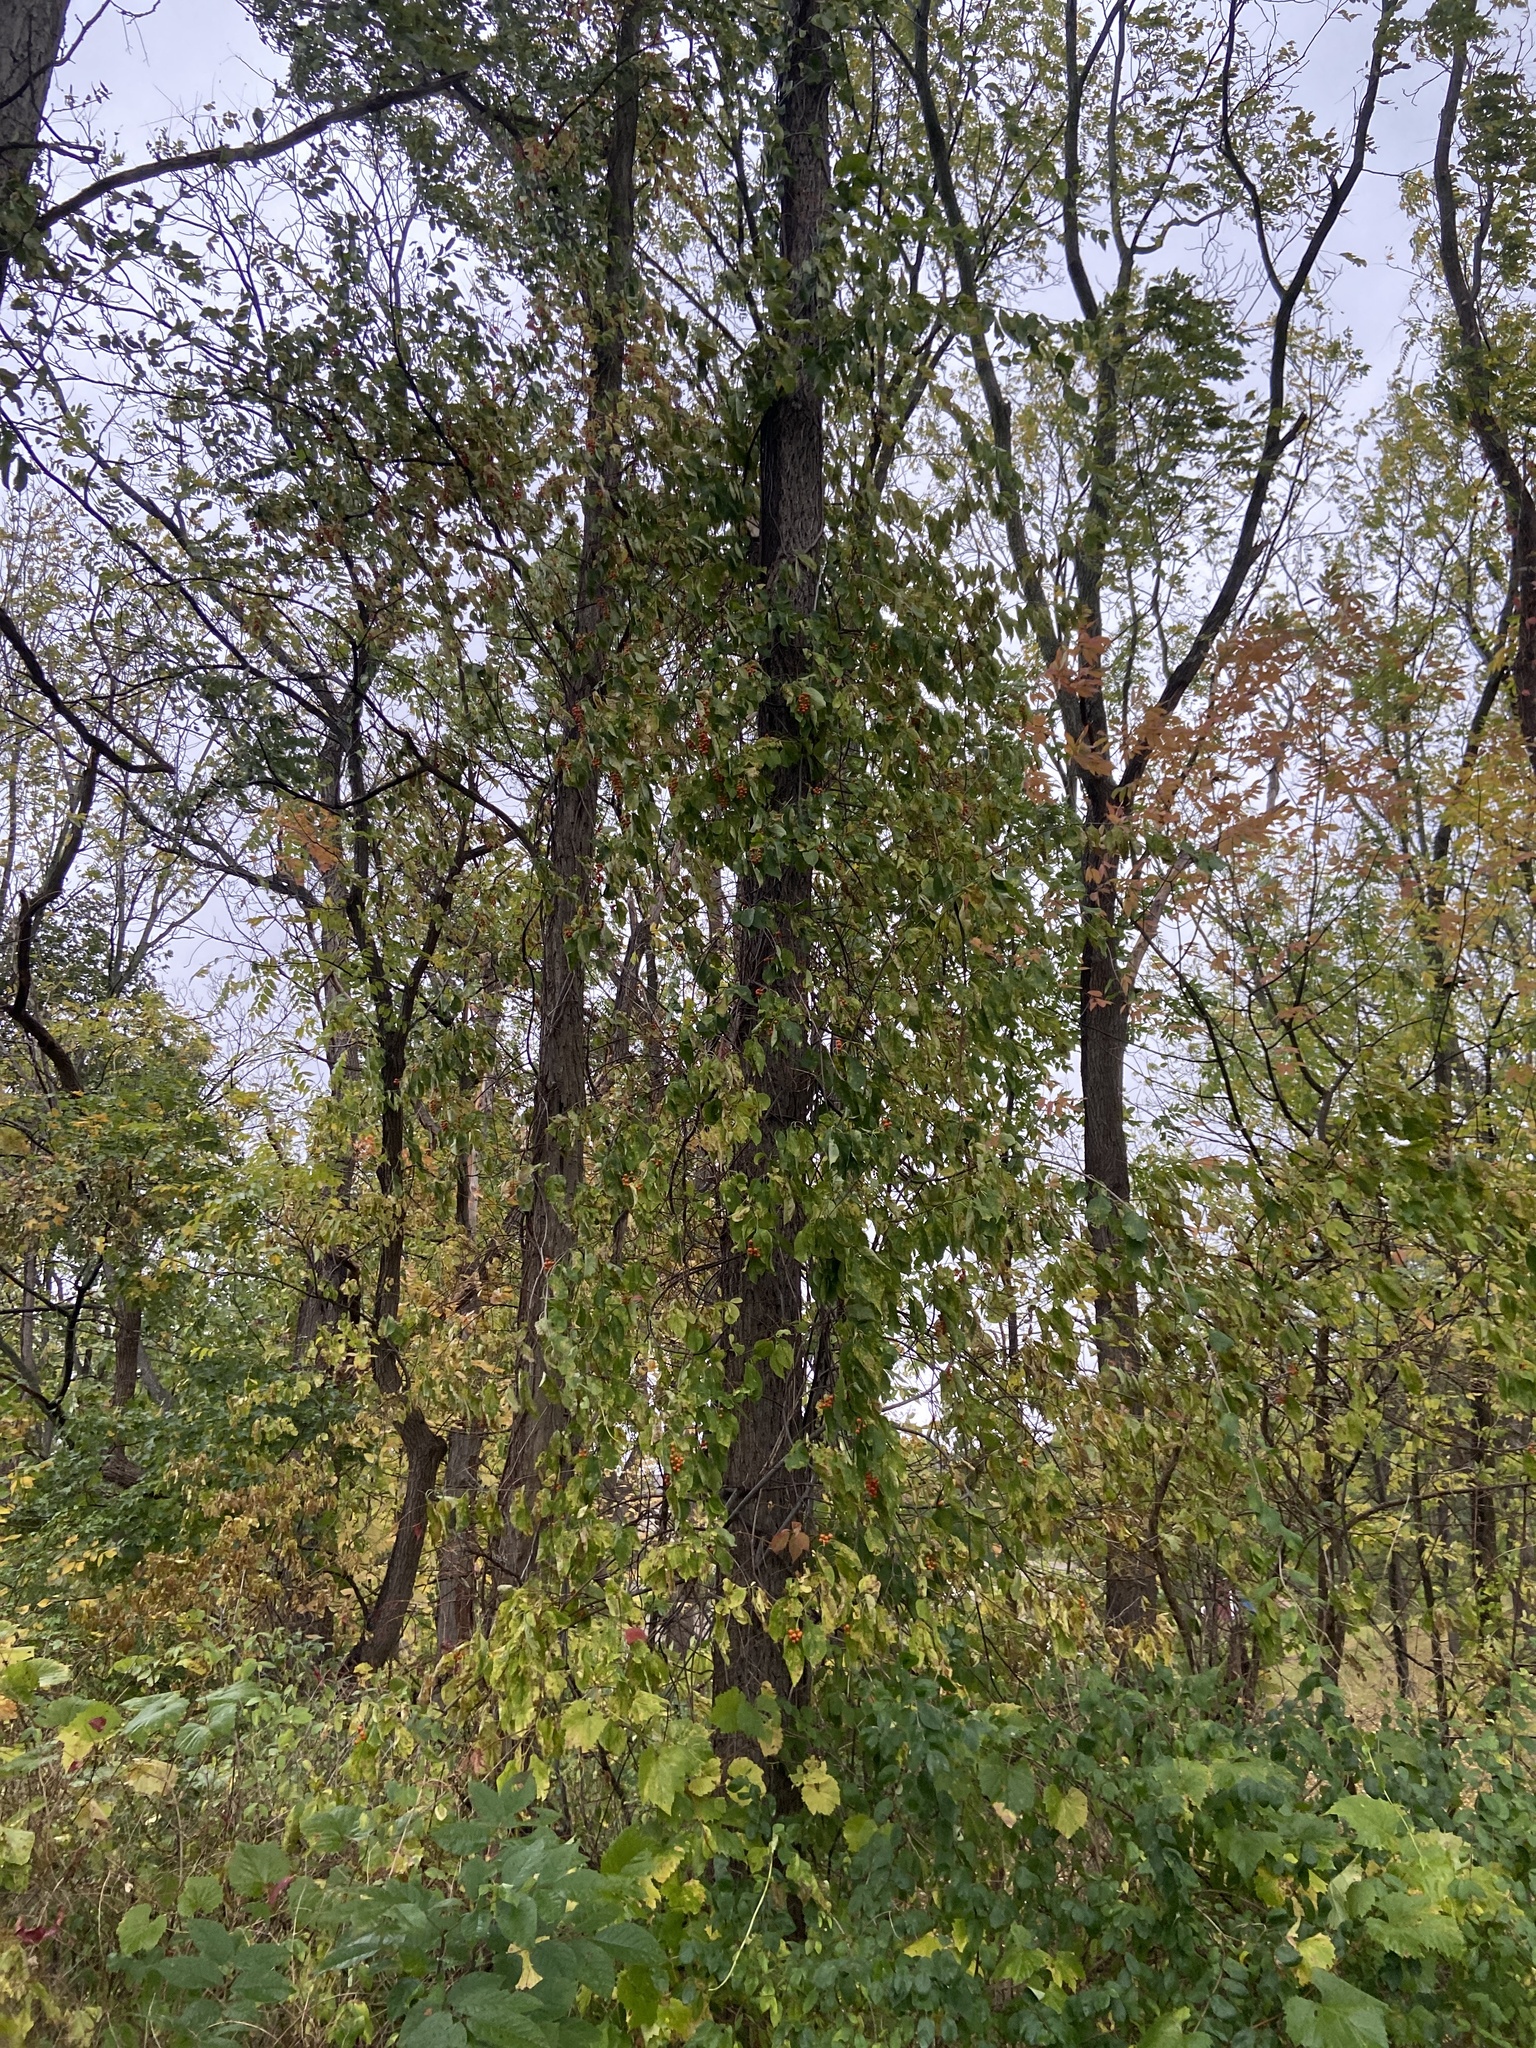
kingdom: Plantae
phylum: Tracheophyta
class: Magnoliopsida
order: Celastrales
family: Celastraceae
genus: Celastrus
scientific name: Celastrus scandens
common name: American bittersweet
